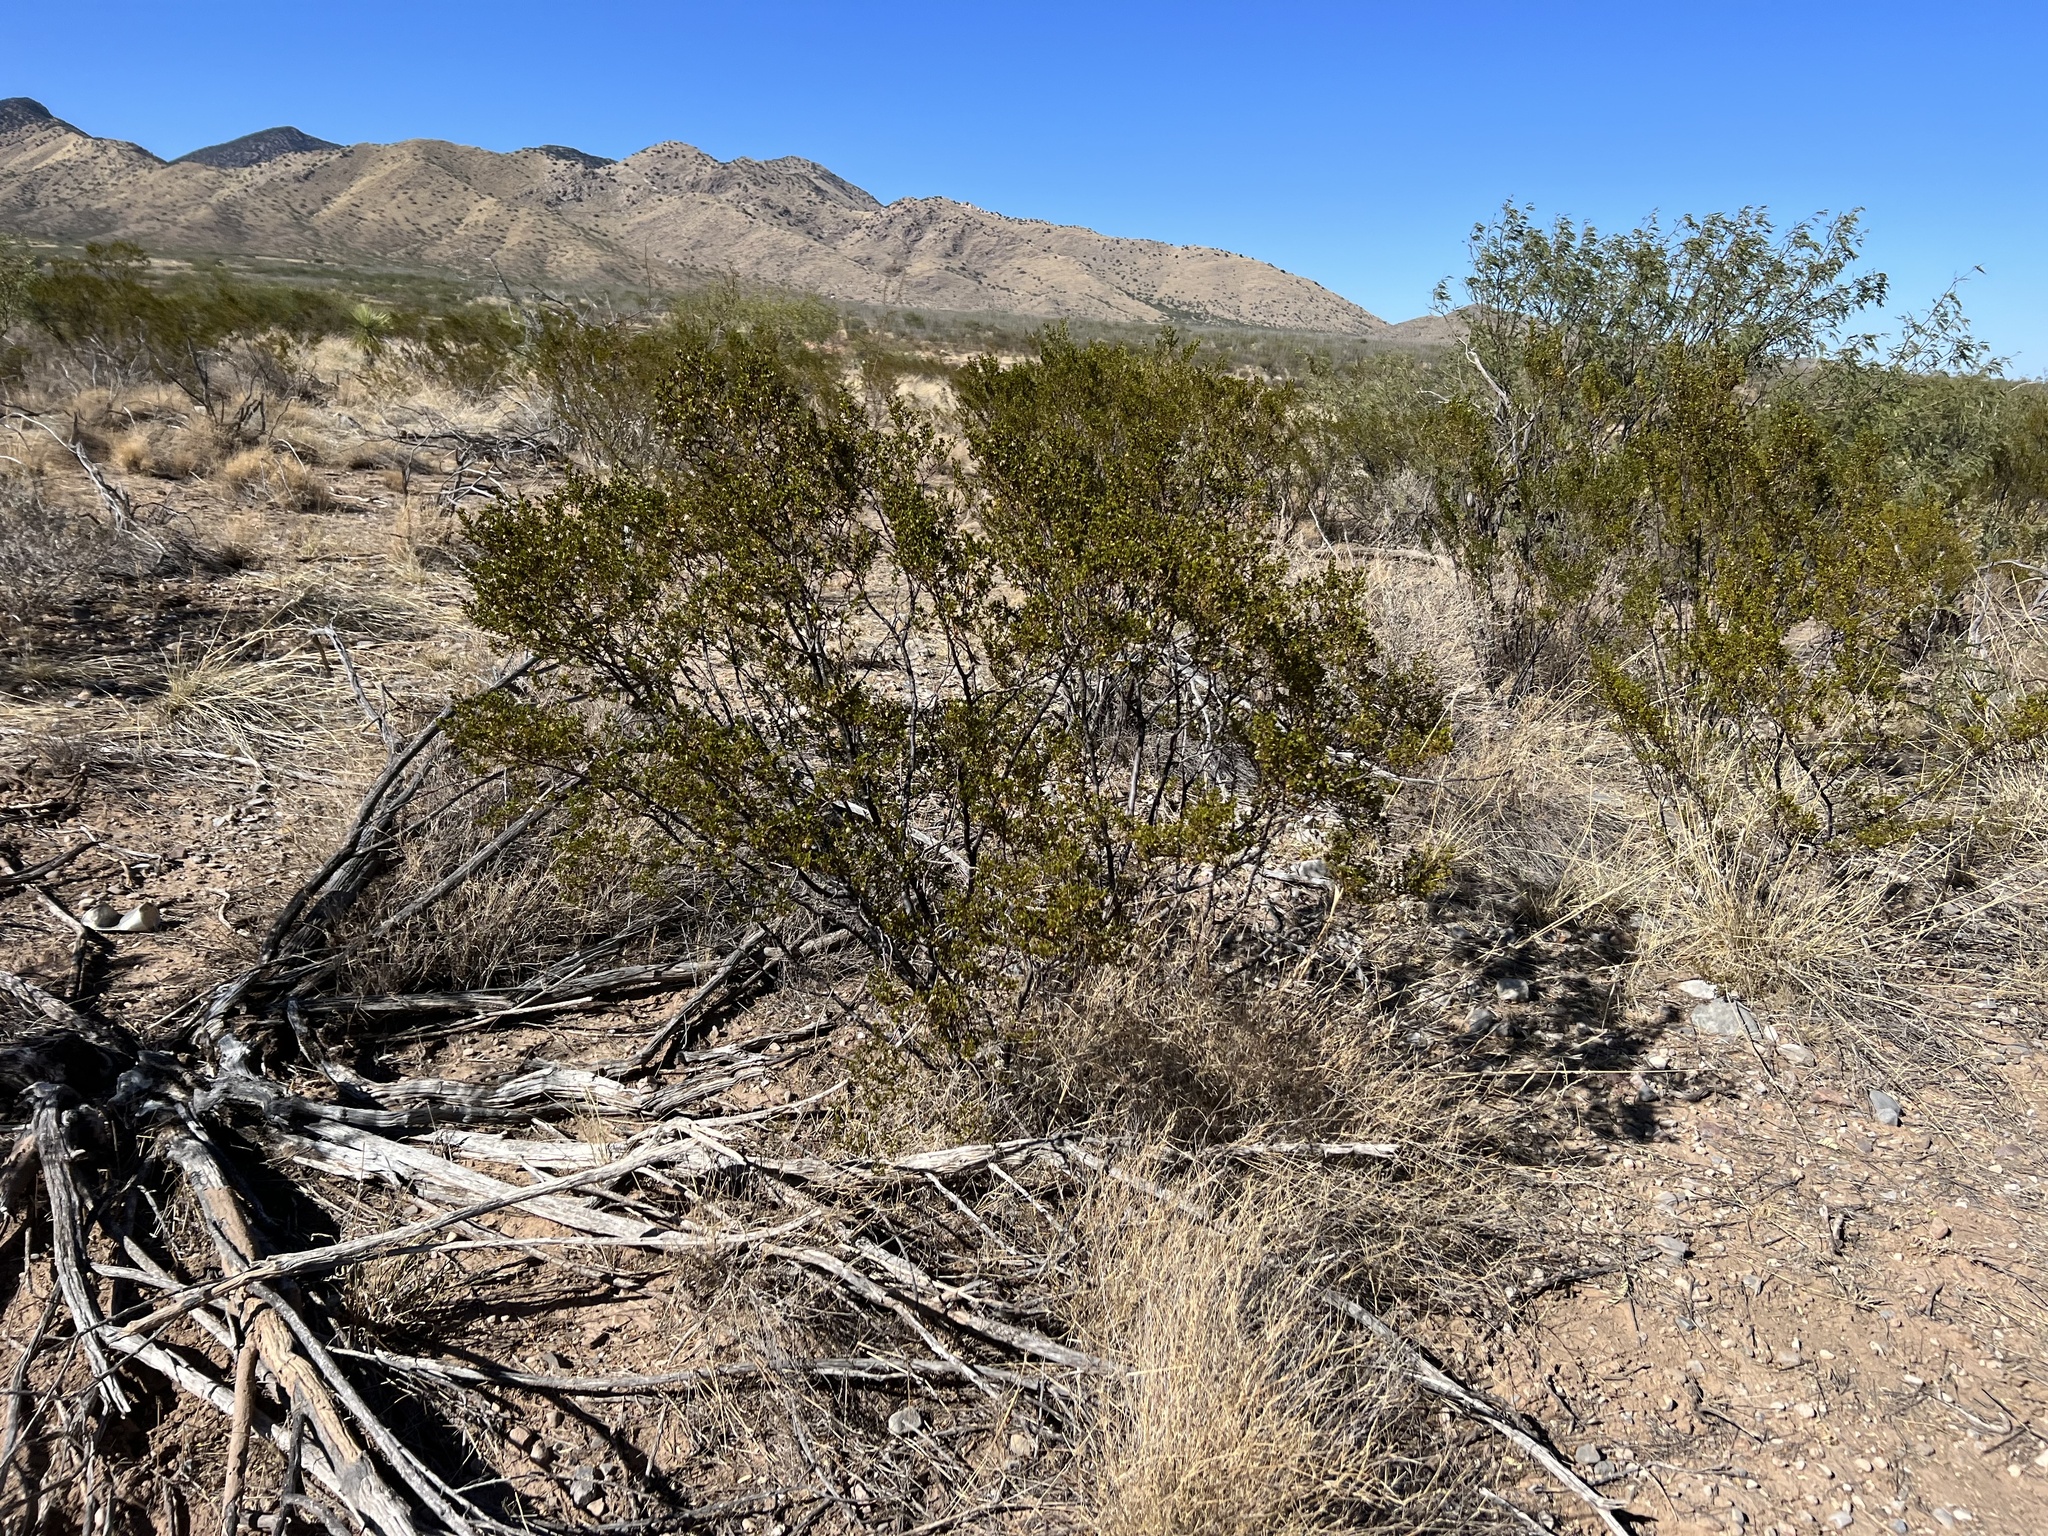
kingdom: Plantae
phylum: Tracheophyta
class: Magnoliopsida
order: Zygophyllales
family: Zygophyllaceae
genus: Larrea
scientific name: Larrea tridentata
